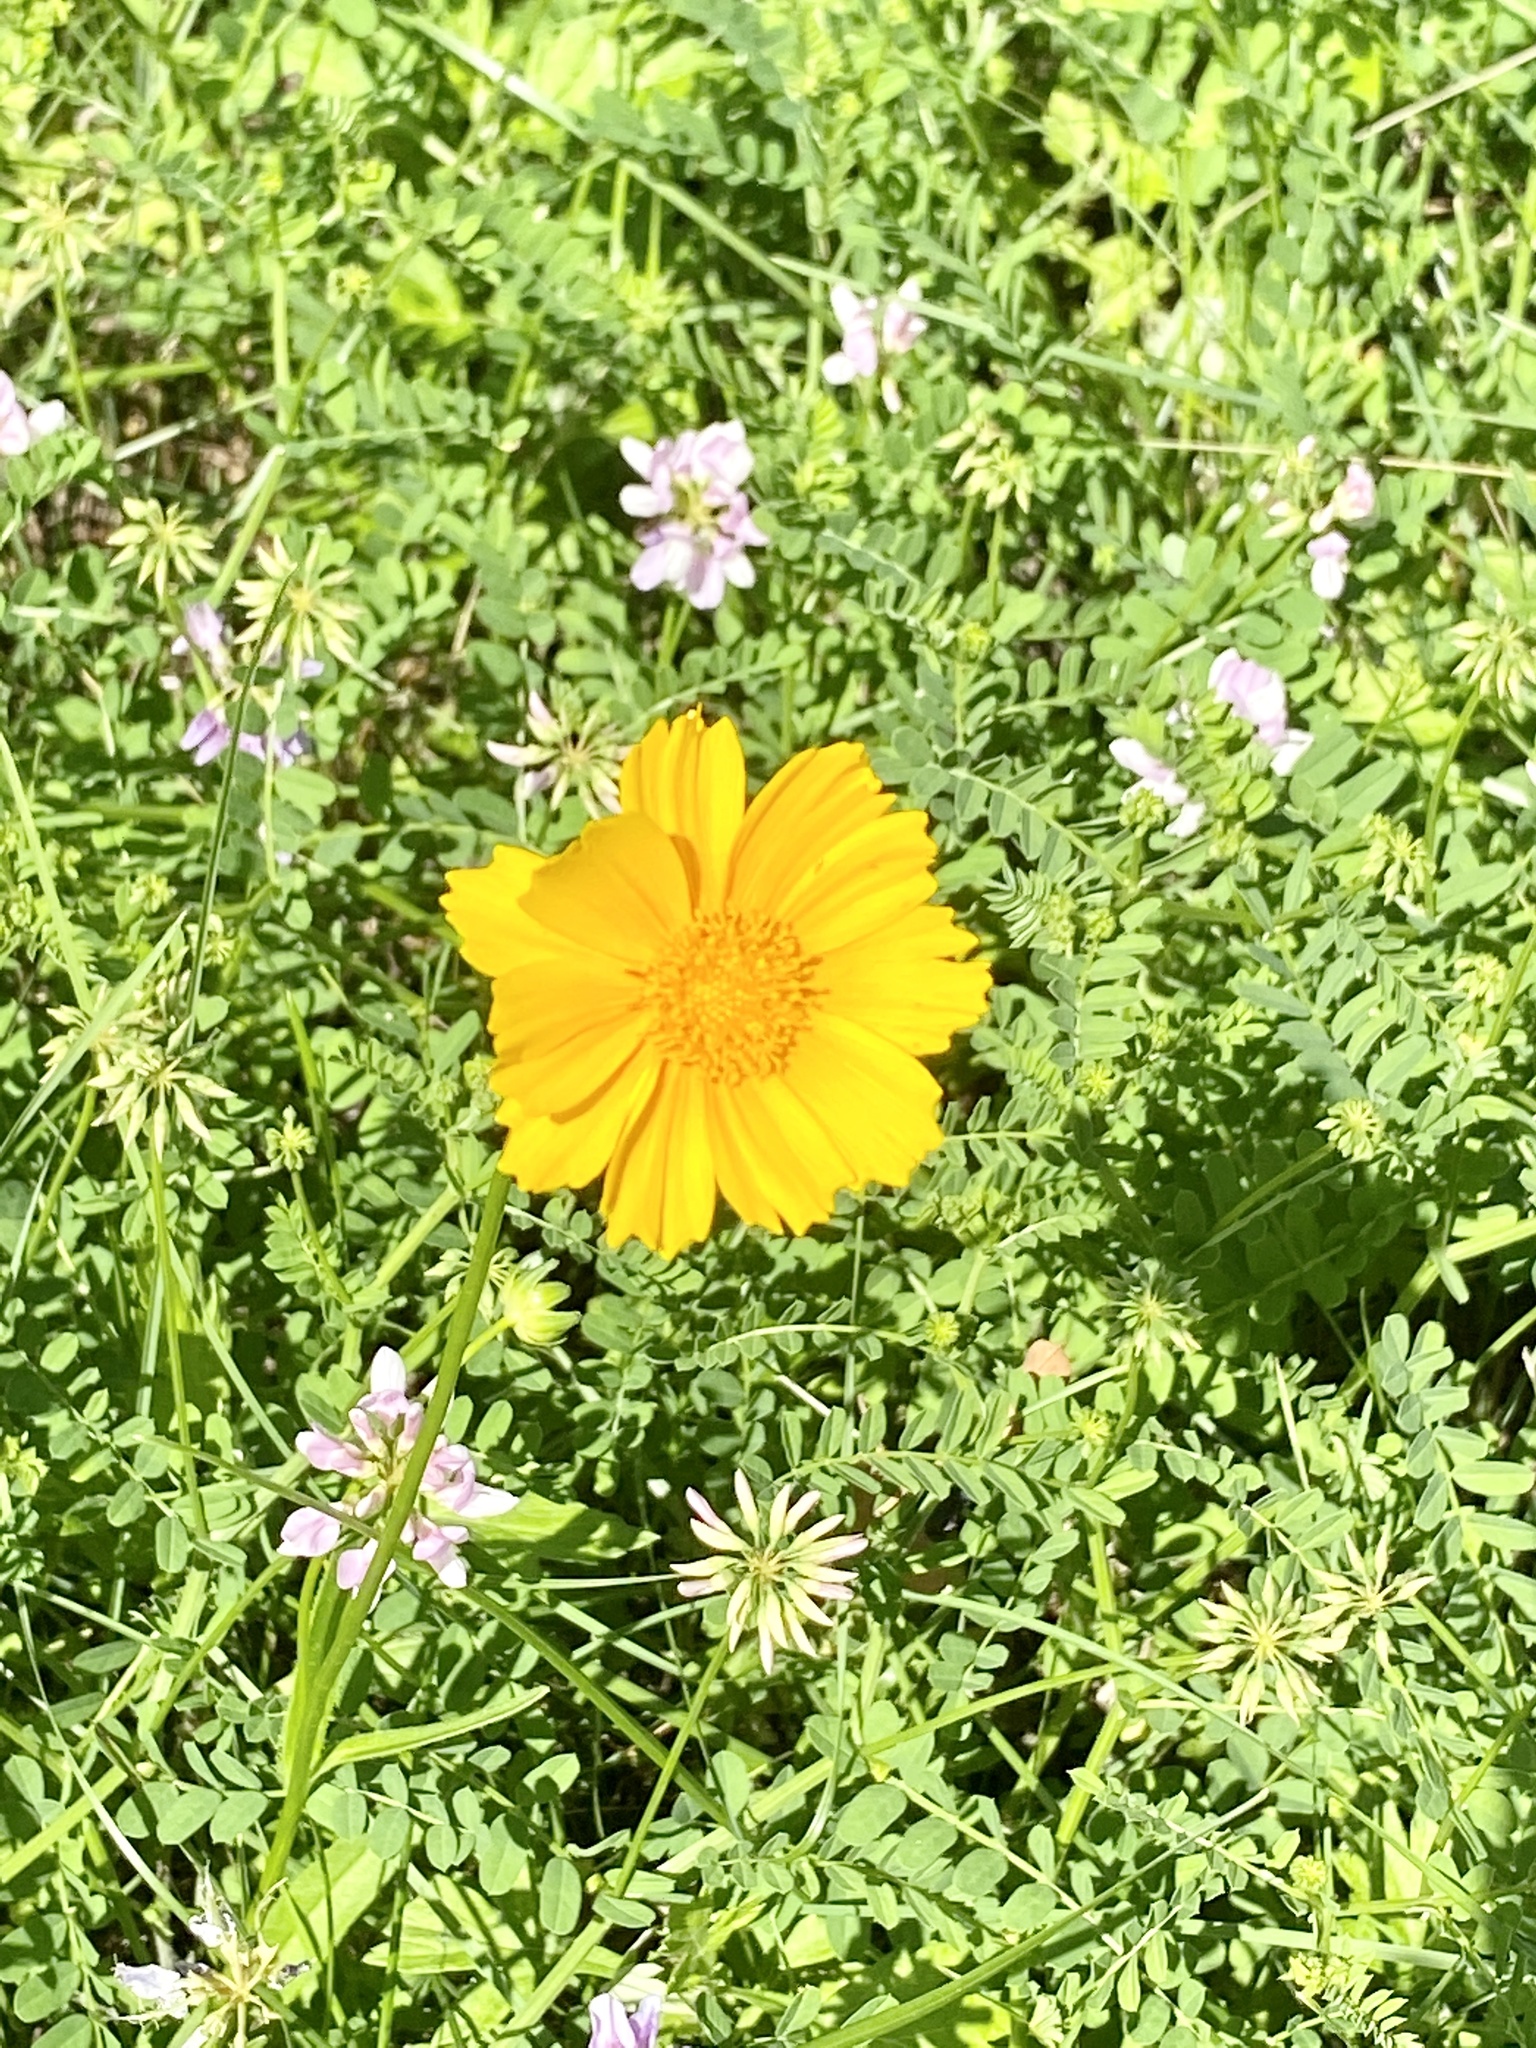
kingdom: Plantae
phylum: Tracheophyta
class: Magnoliopsida
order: Asterales
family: Asteraceae
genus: Coreopsis
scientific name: Coreopsis lanceolata
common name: Garden coreopsis
